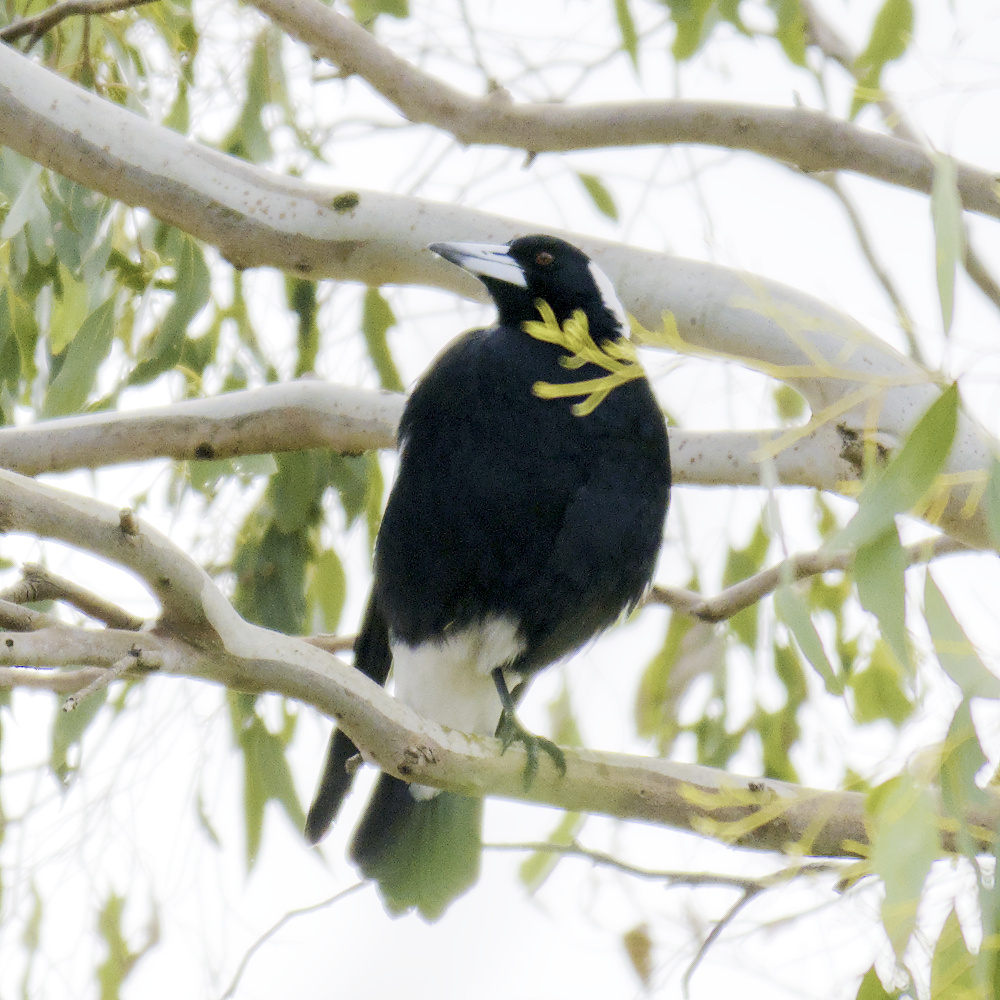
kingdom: Animalia
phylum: Chordata
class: Aves
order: Passeriformes
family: Cracticidae
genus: Gymnorhina
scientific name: Gymnorhina tibicen
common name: Australian magpie
